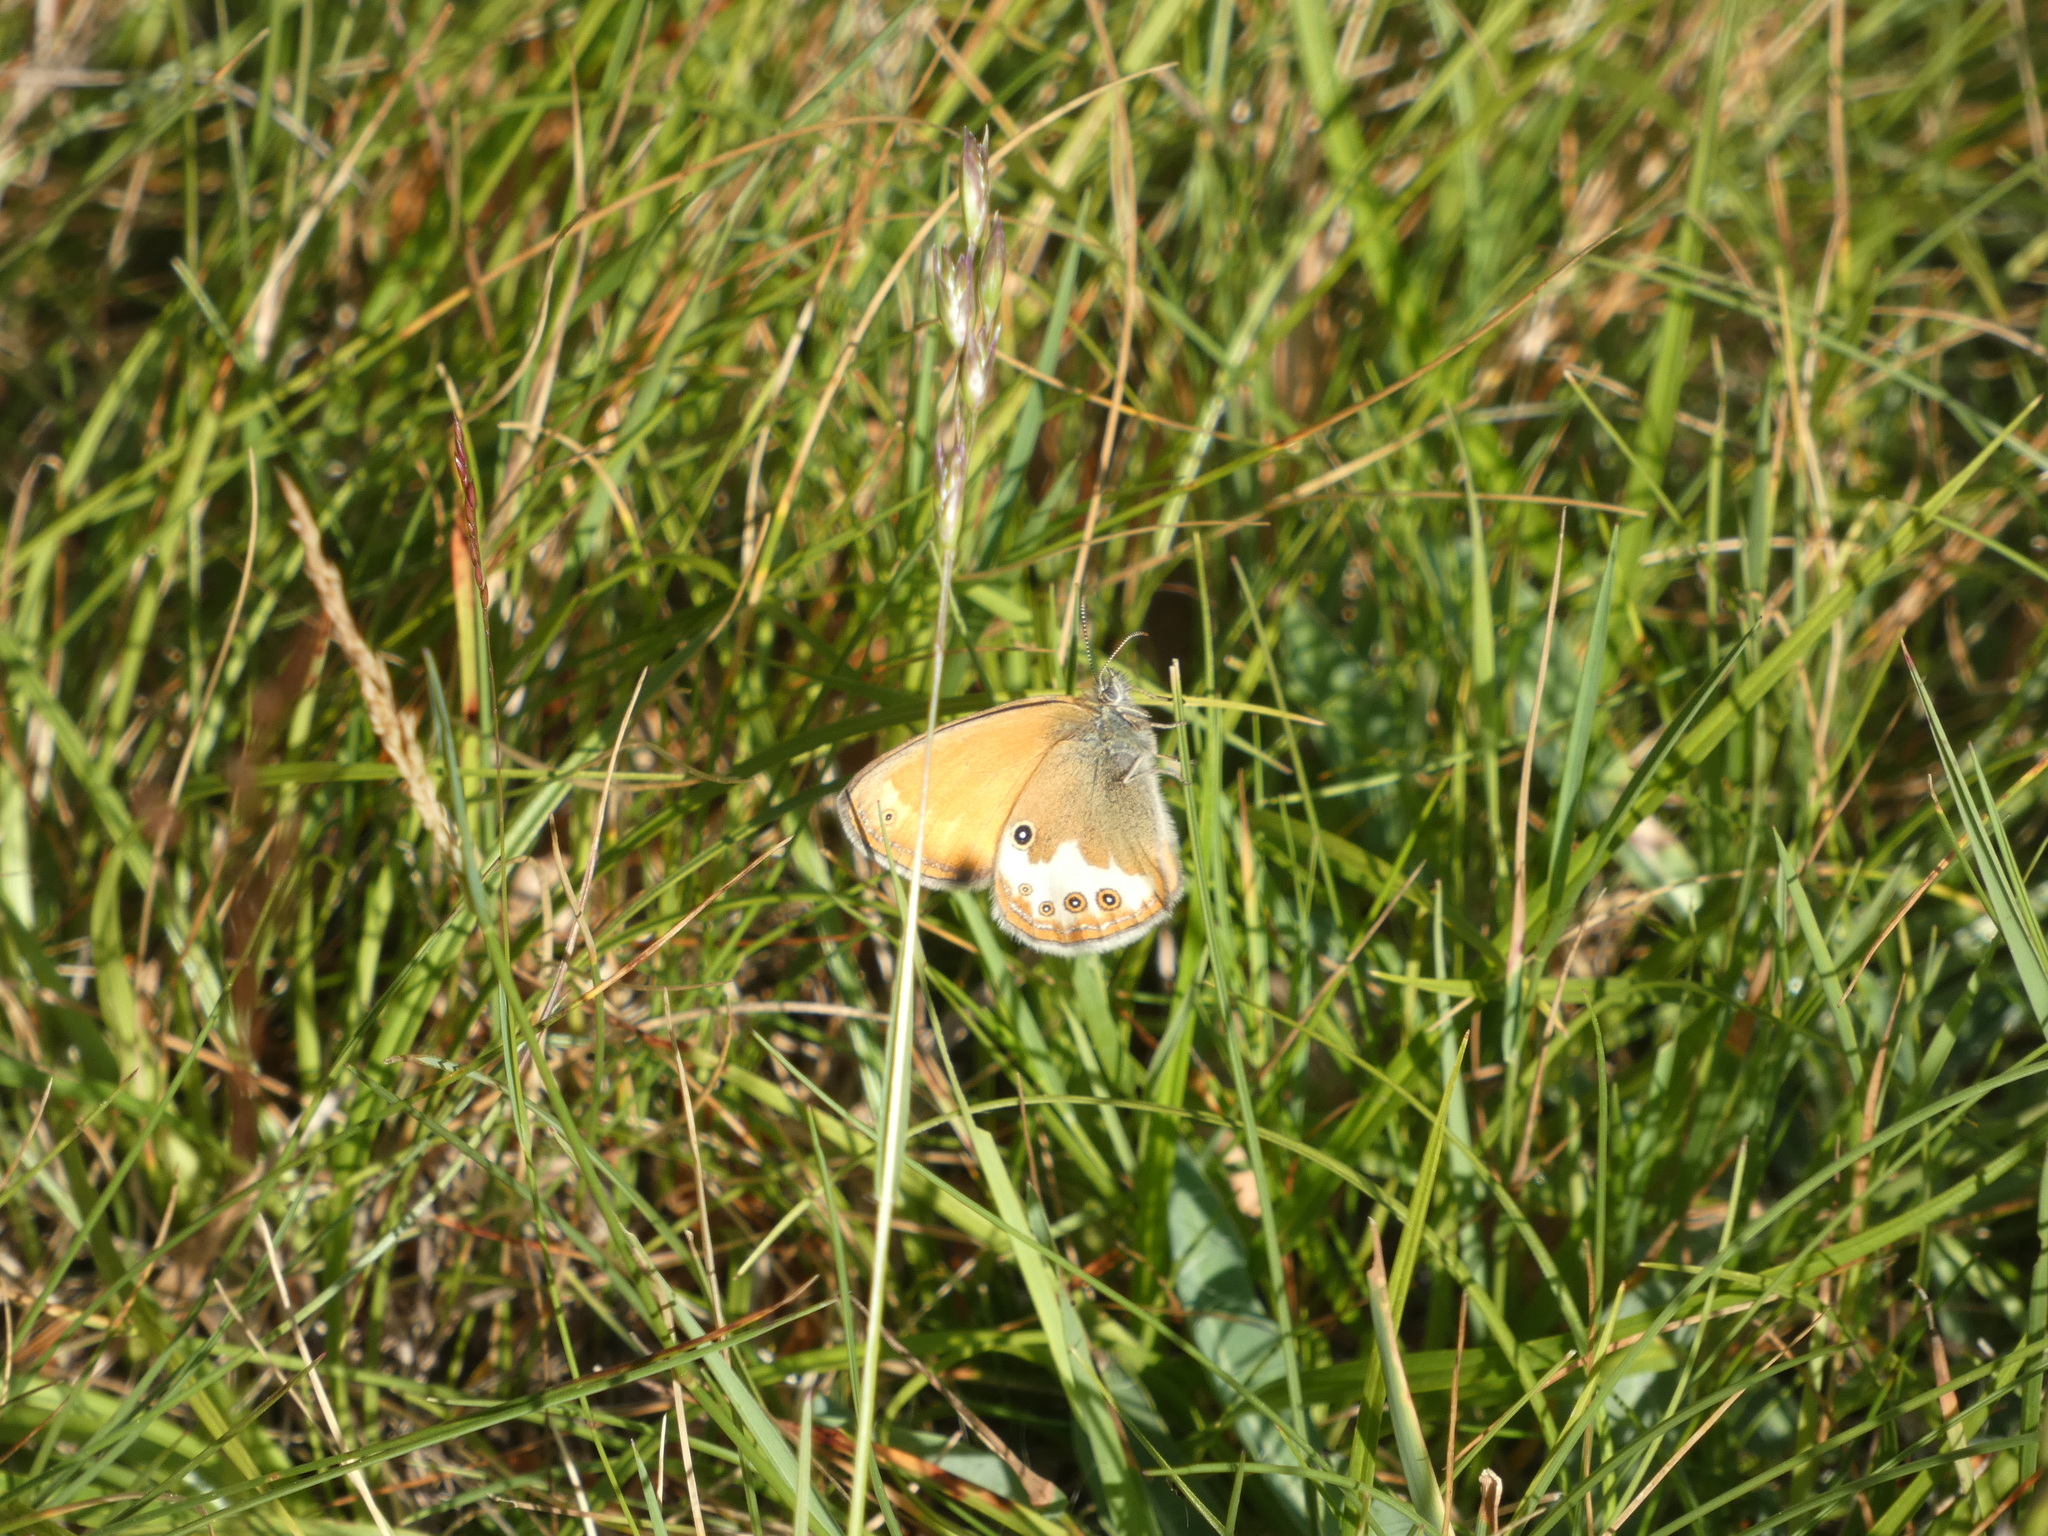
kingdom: Animalia
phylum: Arthropoda
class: Insecta
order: Lepidoptera
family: Nymphalidae
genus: Coenonympha
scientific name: Coenonympha arcania
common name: Pearly heath
